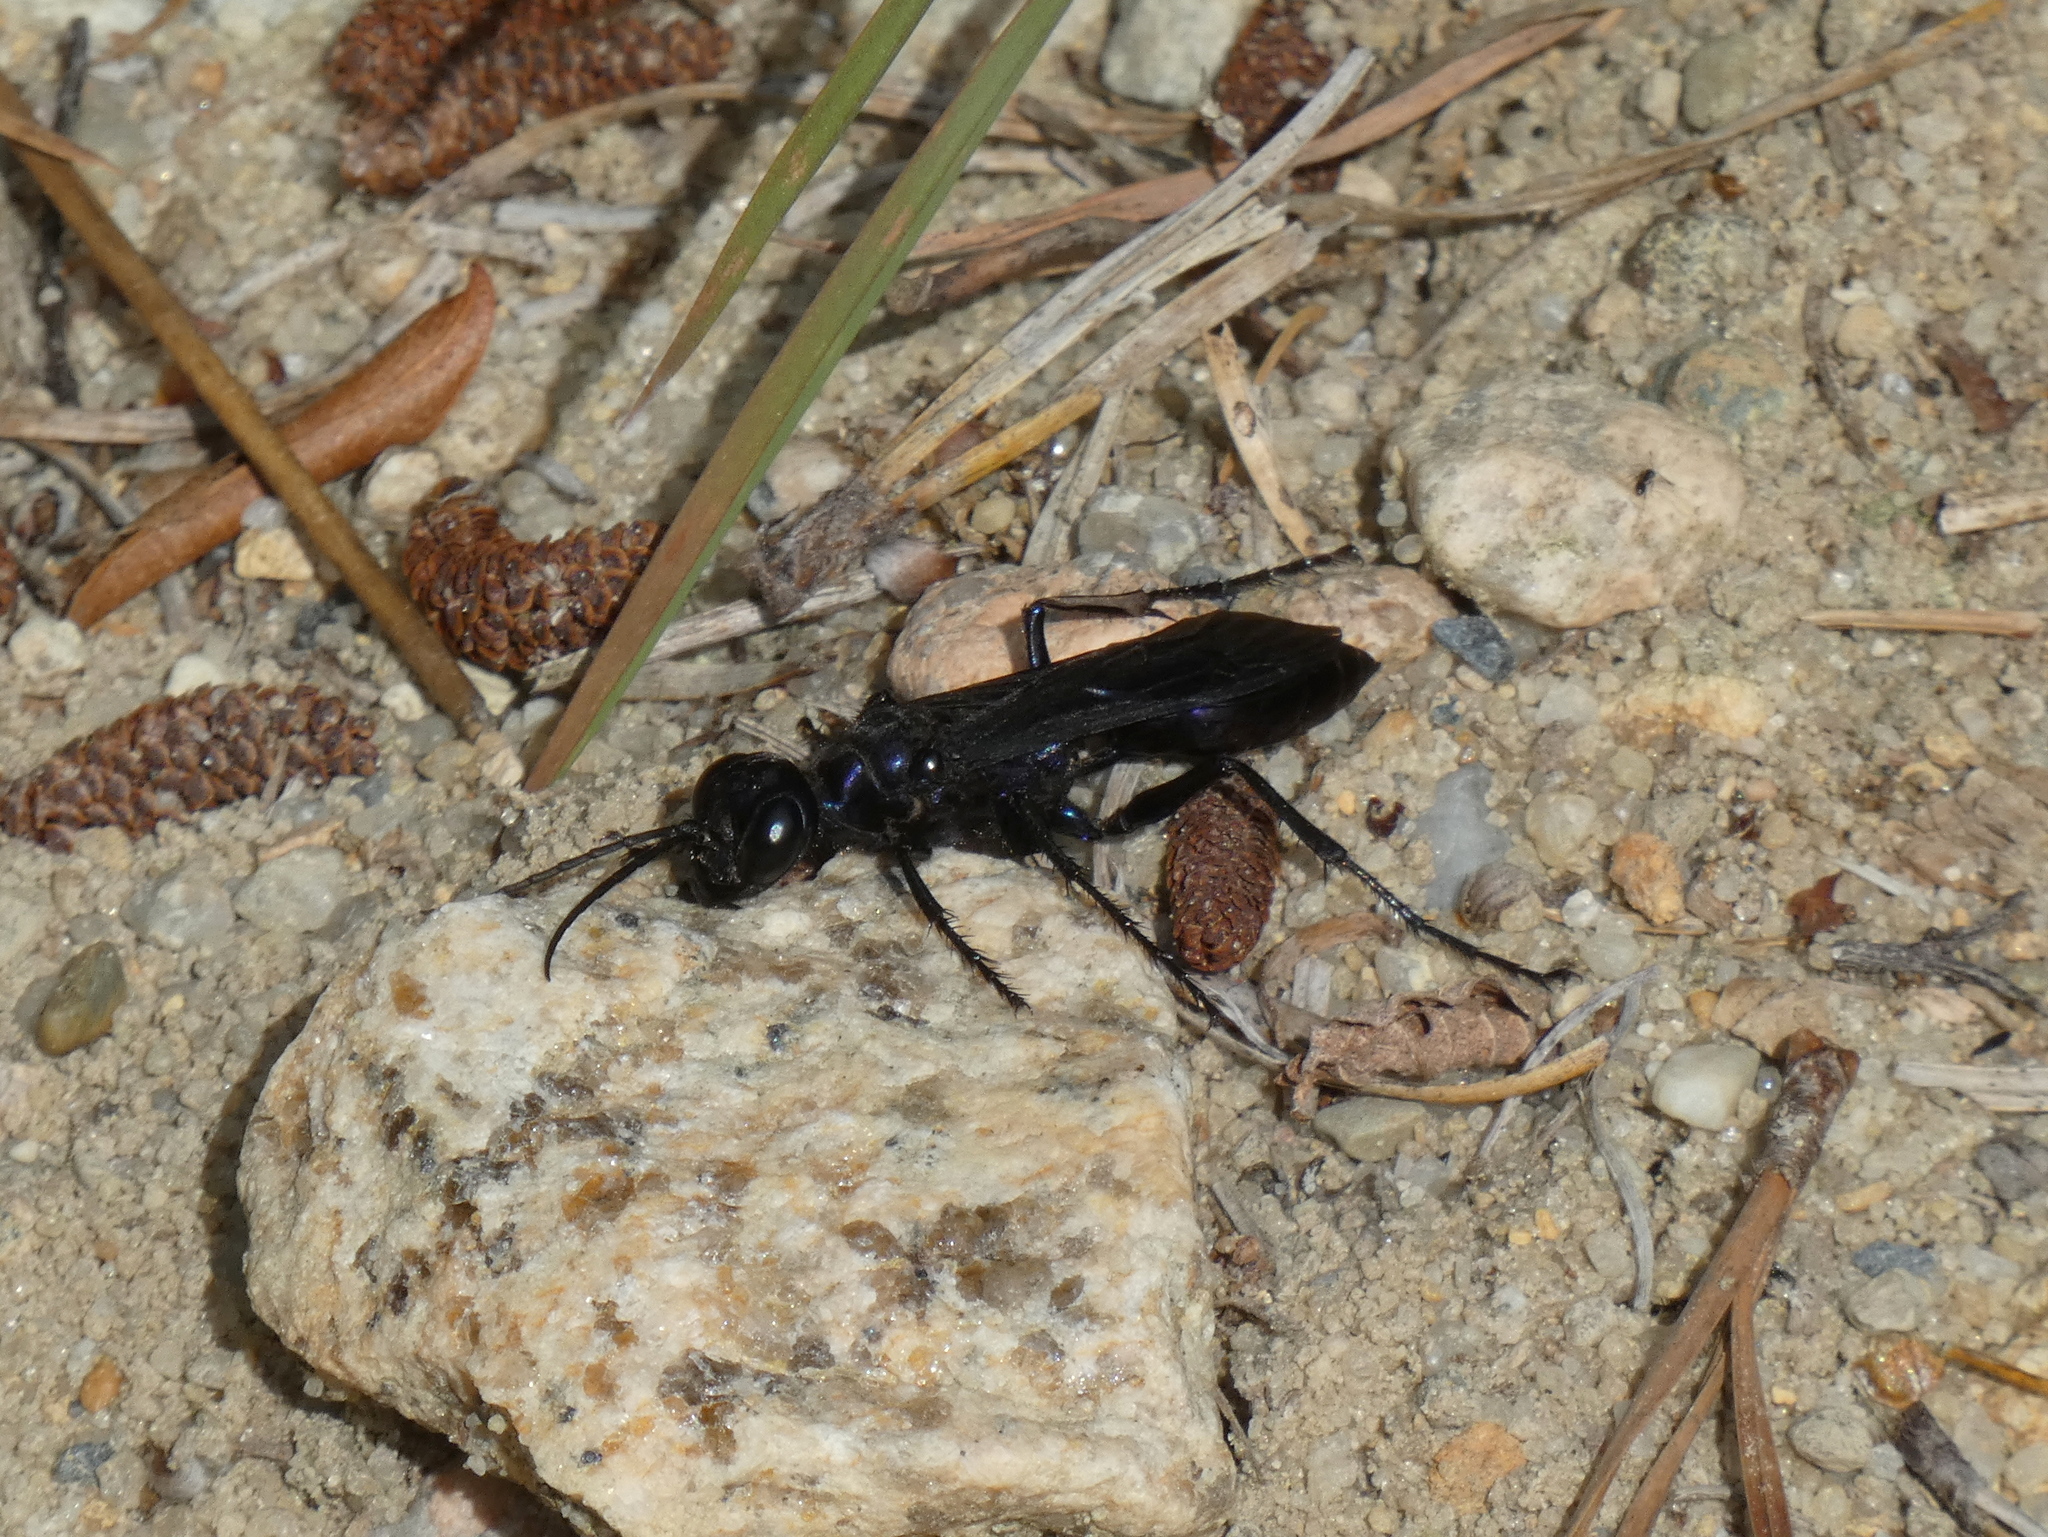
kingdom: Animalia
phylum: Arthropoda
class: Insecta
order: Hymenoptera
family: Sphecidae
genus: Chlorion
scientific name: Chlorion aerarium
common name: Steel-blue cricket hunter
